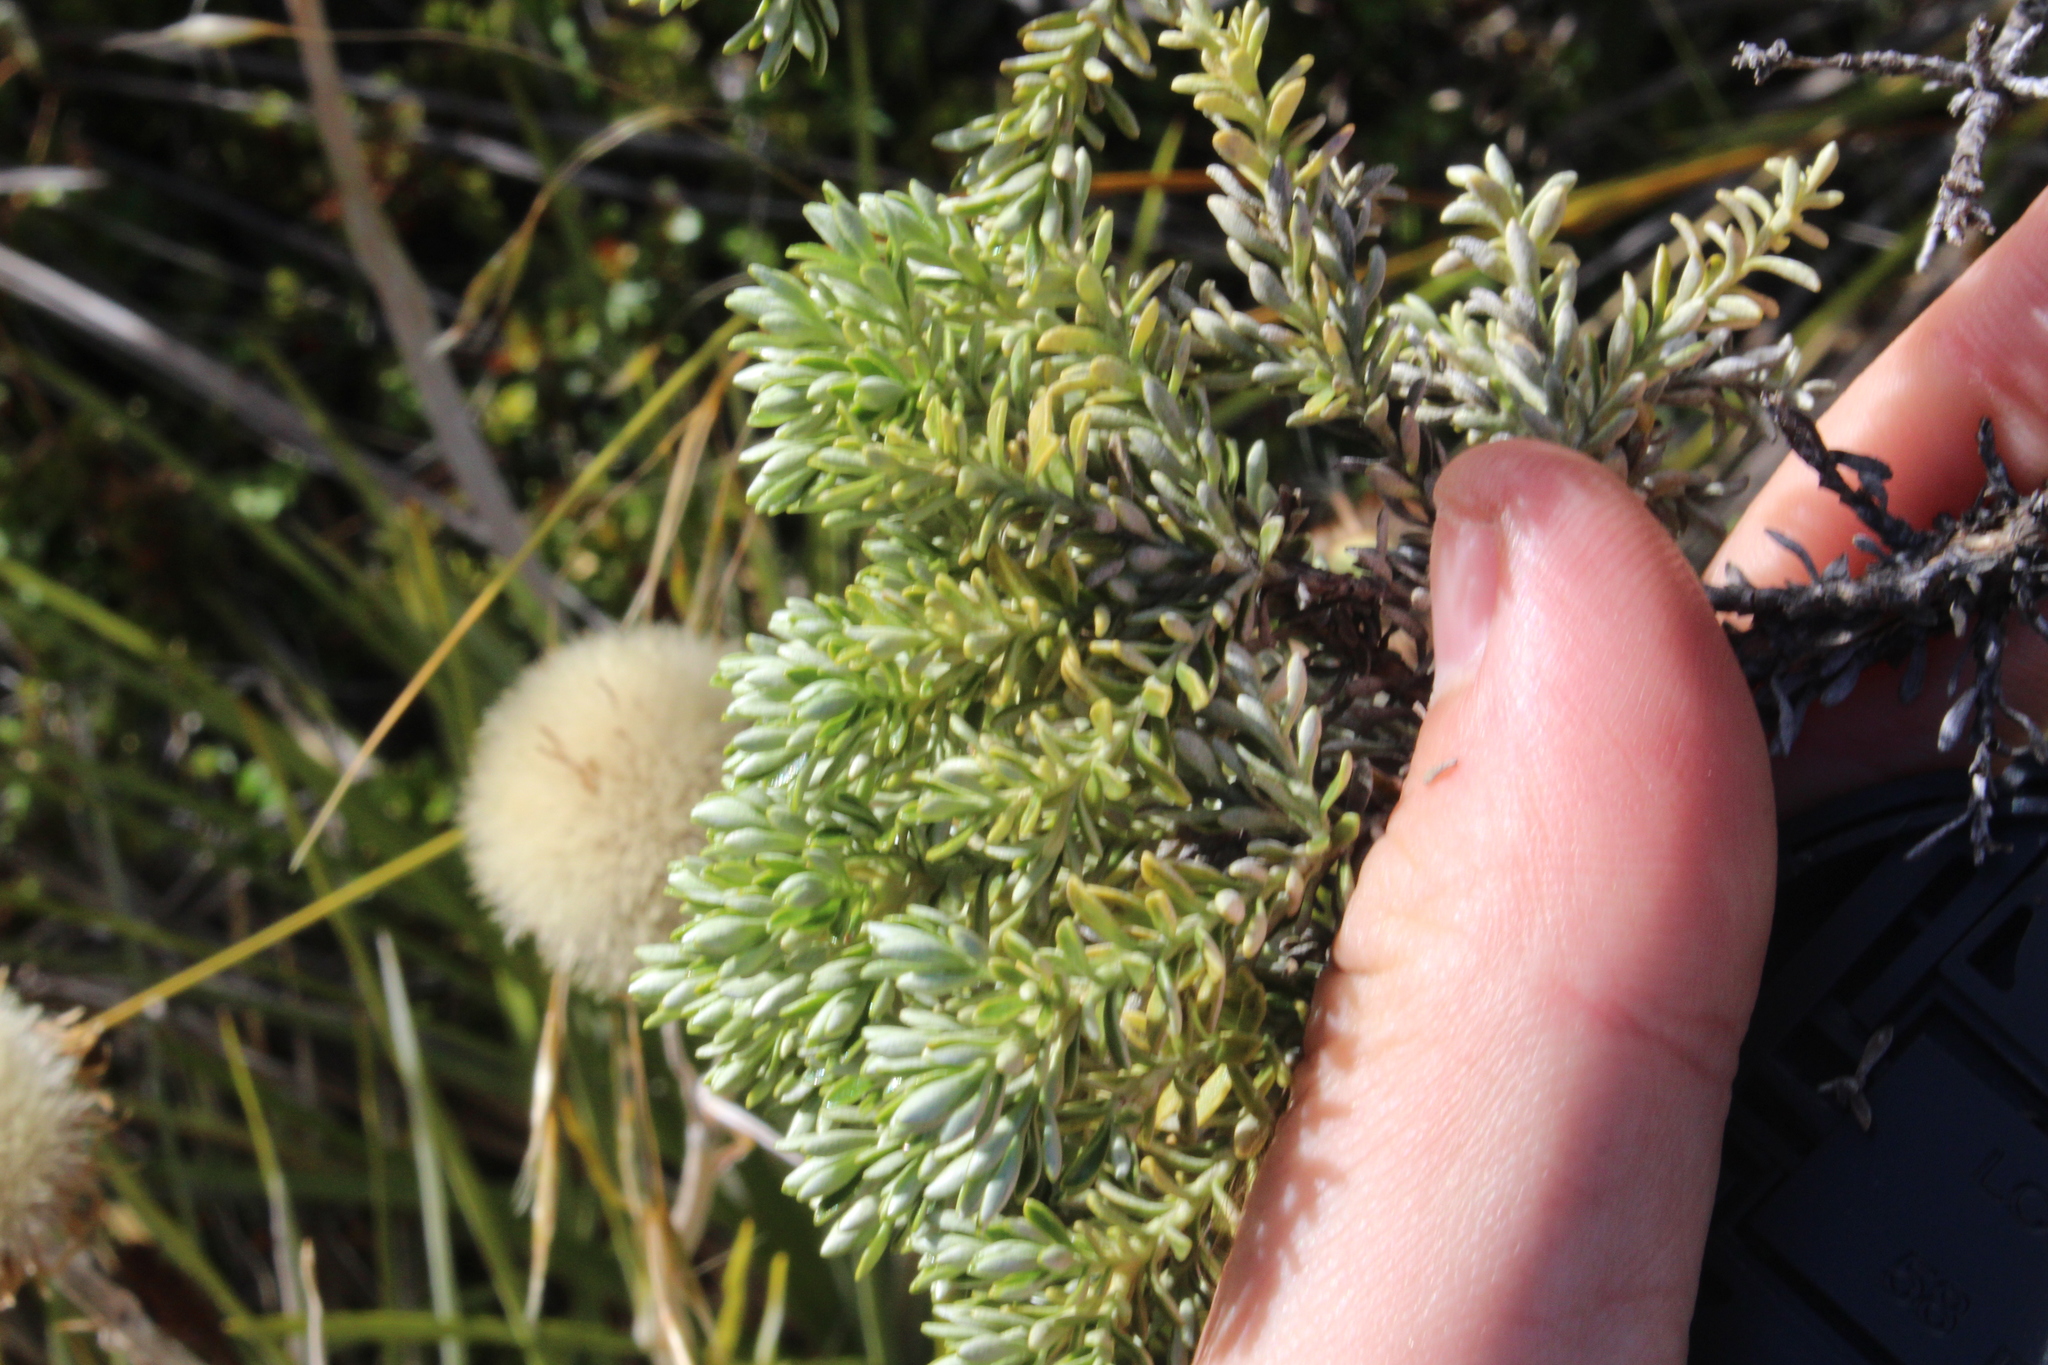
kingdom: Plantae
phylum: Tracheophyta
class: Magnoliopsida
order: Asterales
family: Asteraceae
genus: Brachyglottis
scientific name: Brachyglottis cassinioides
